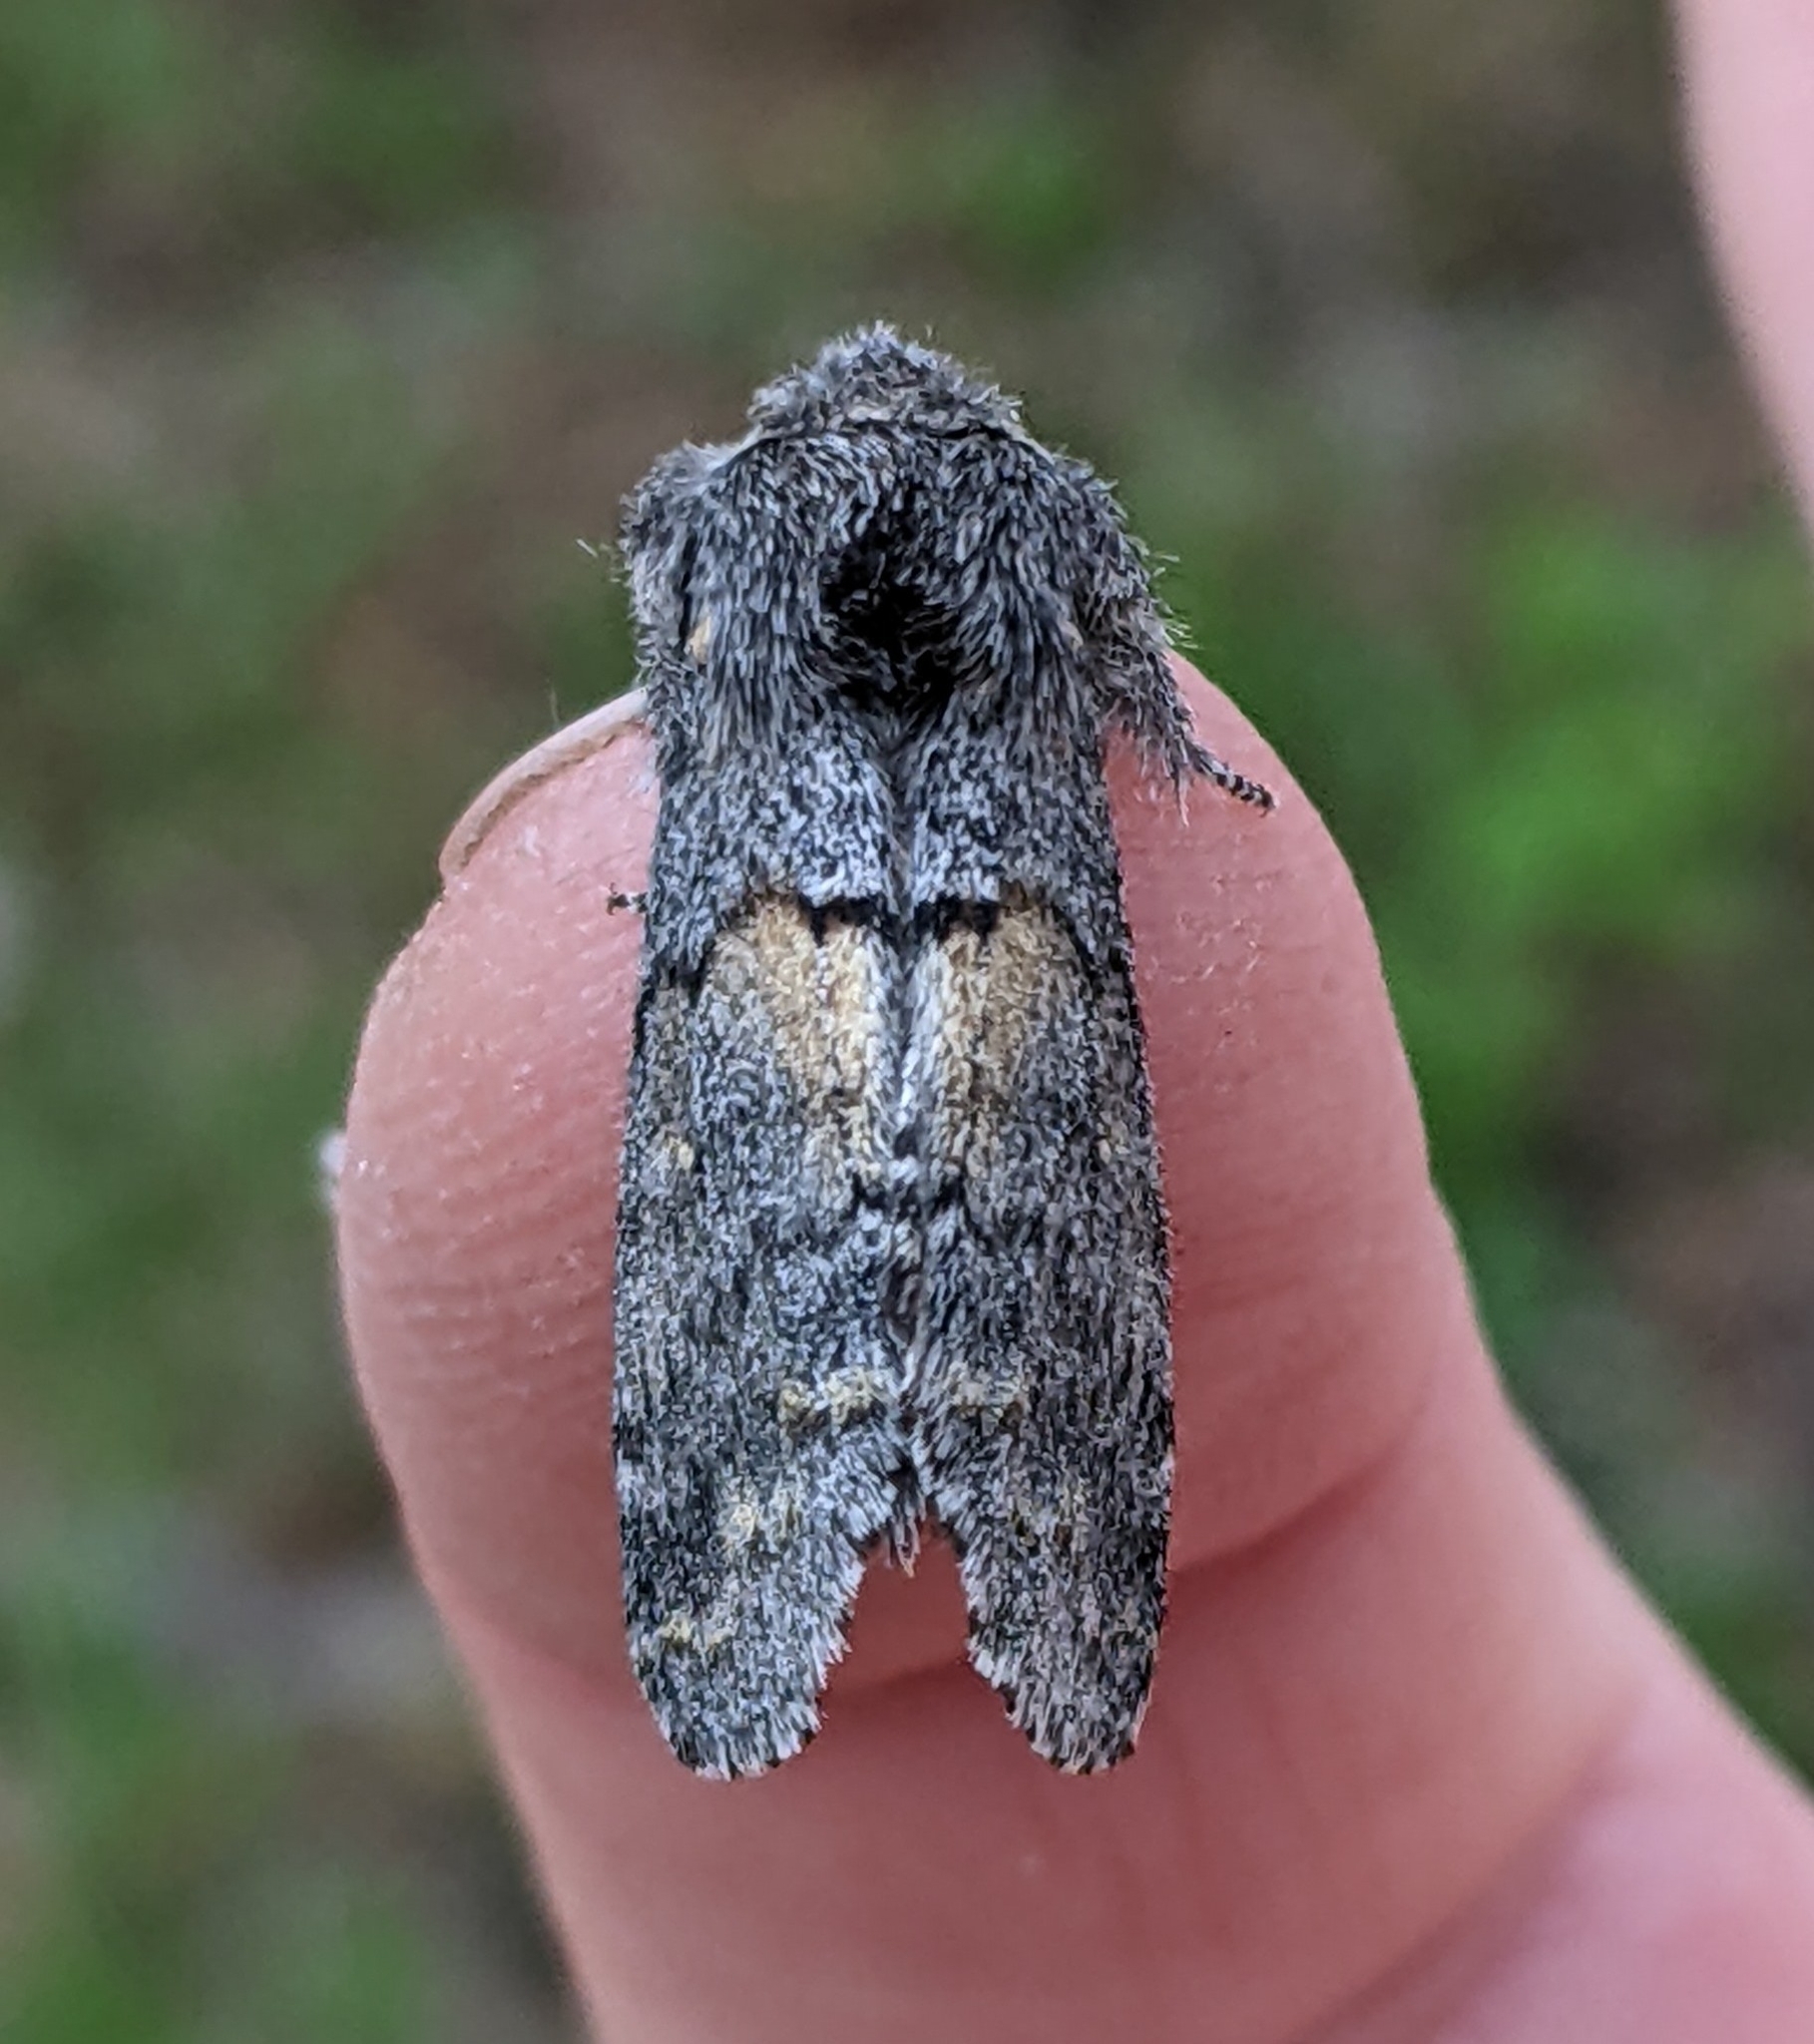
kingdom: Animalia
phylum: Arthropoda
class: Insecta
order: Lepidoptera
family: Notodontidae
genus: Gluphisia
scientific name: Gluphisia severa
